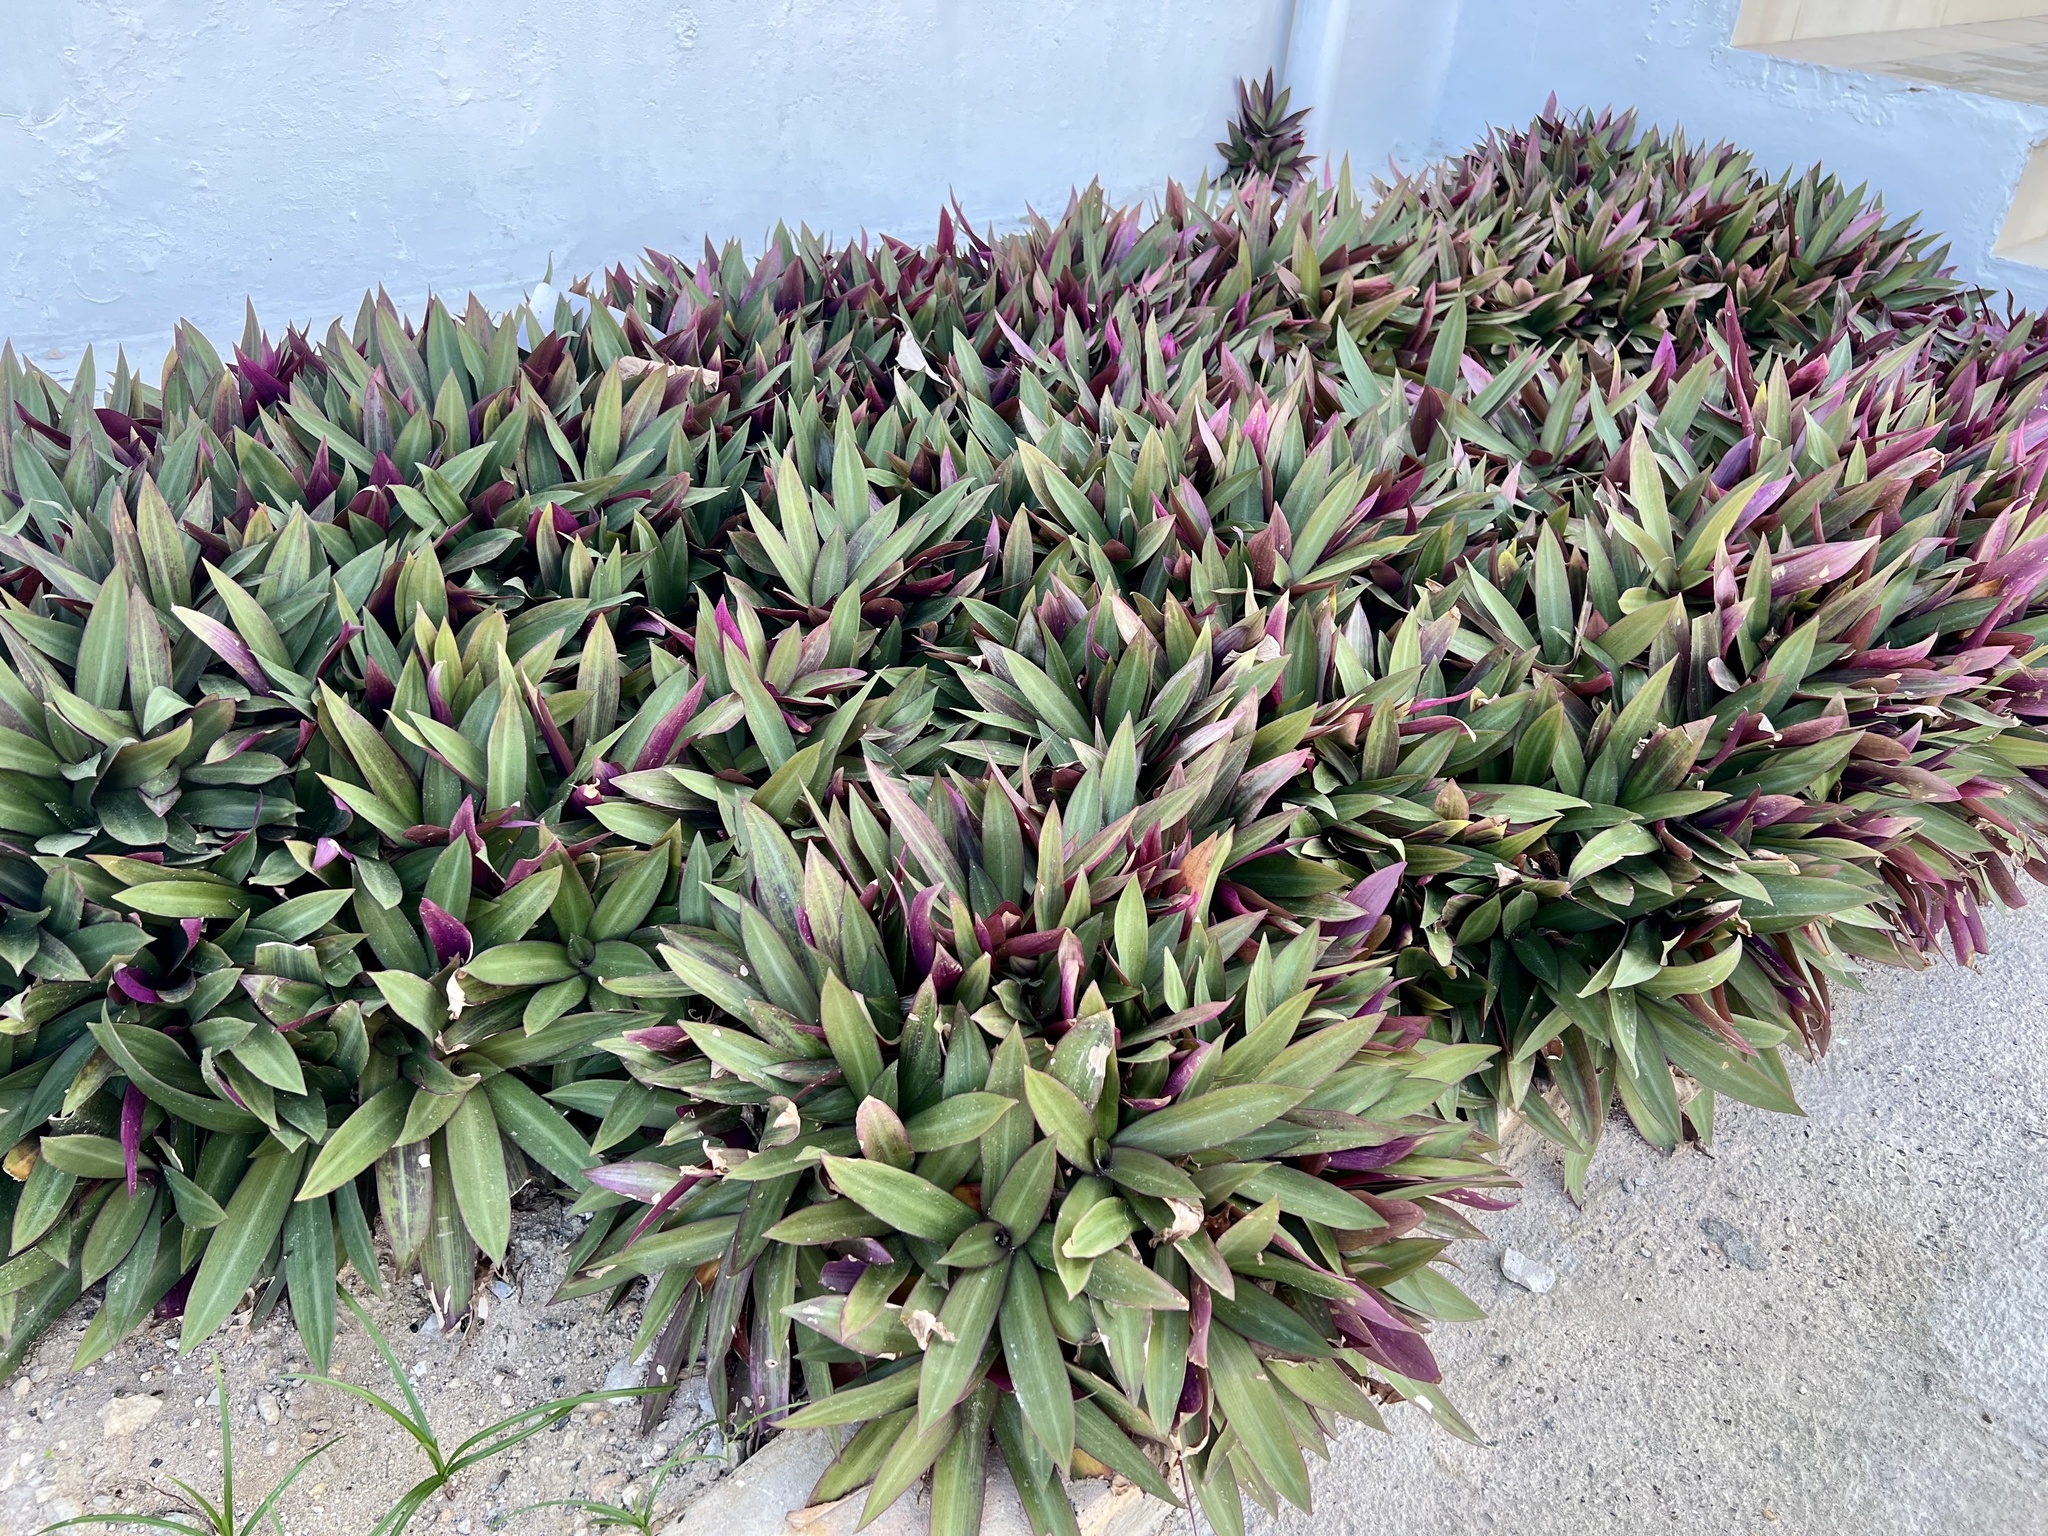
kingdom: Plantae
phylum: Tracheophyta
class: Liliopsida
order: Commelinales
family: Commelinaceae
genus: Tradescantia
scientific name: Tradescantia spathacea
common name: Boatlily
